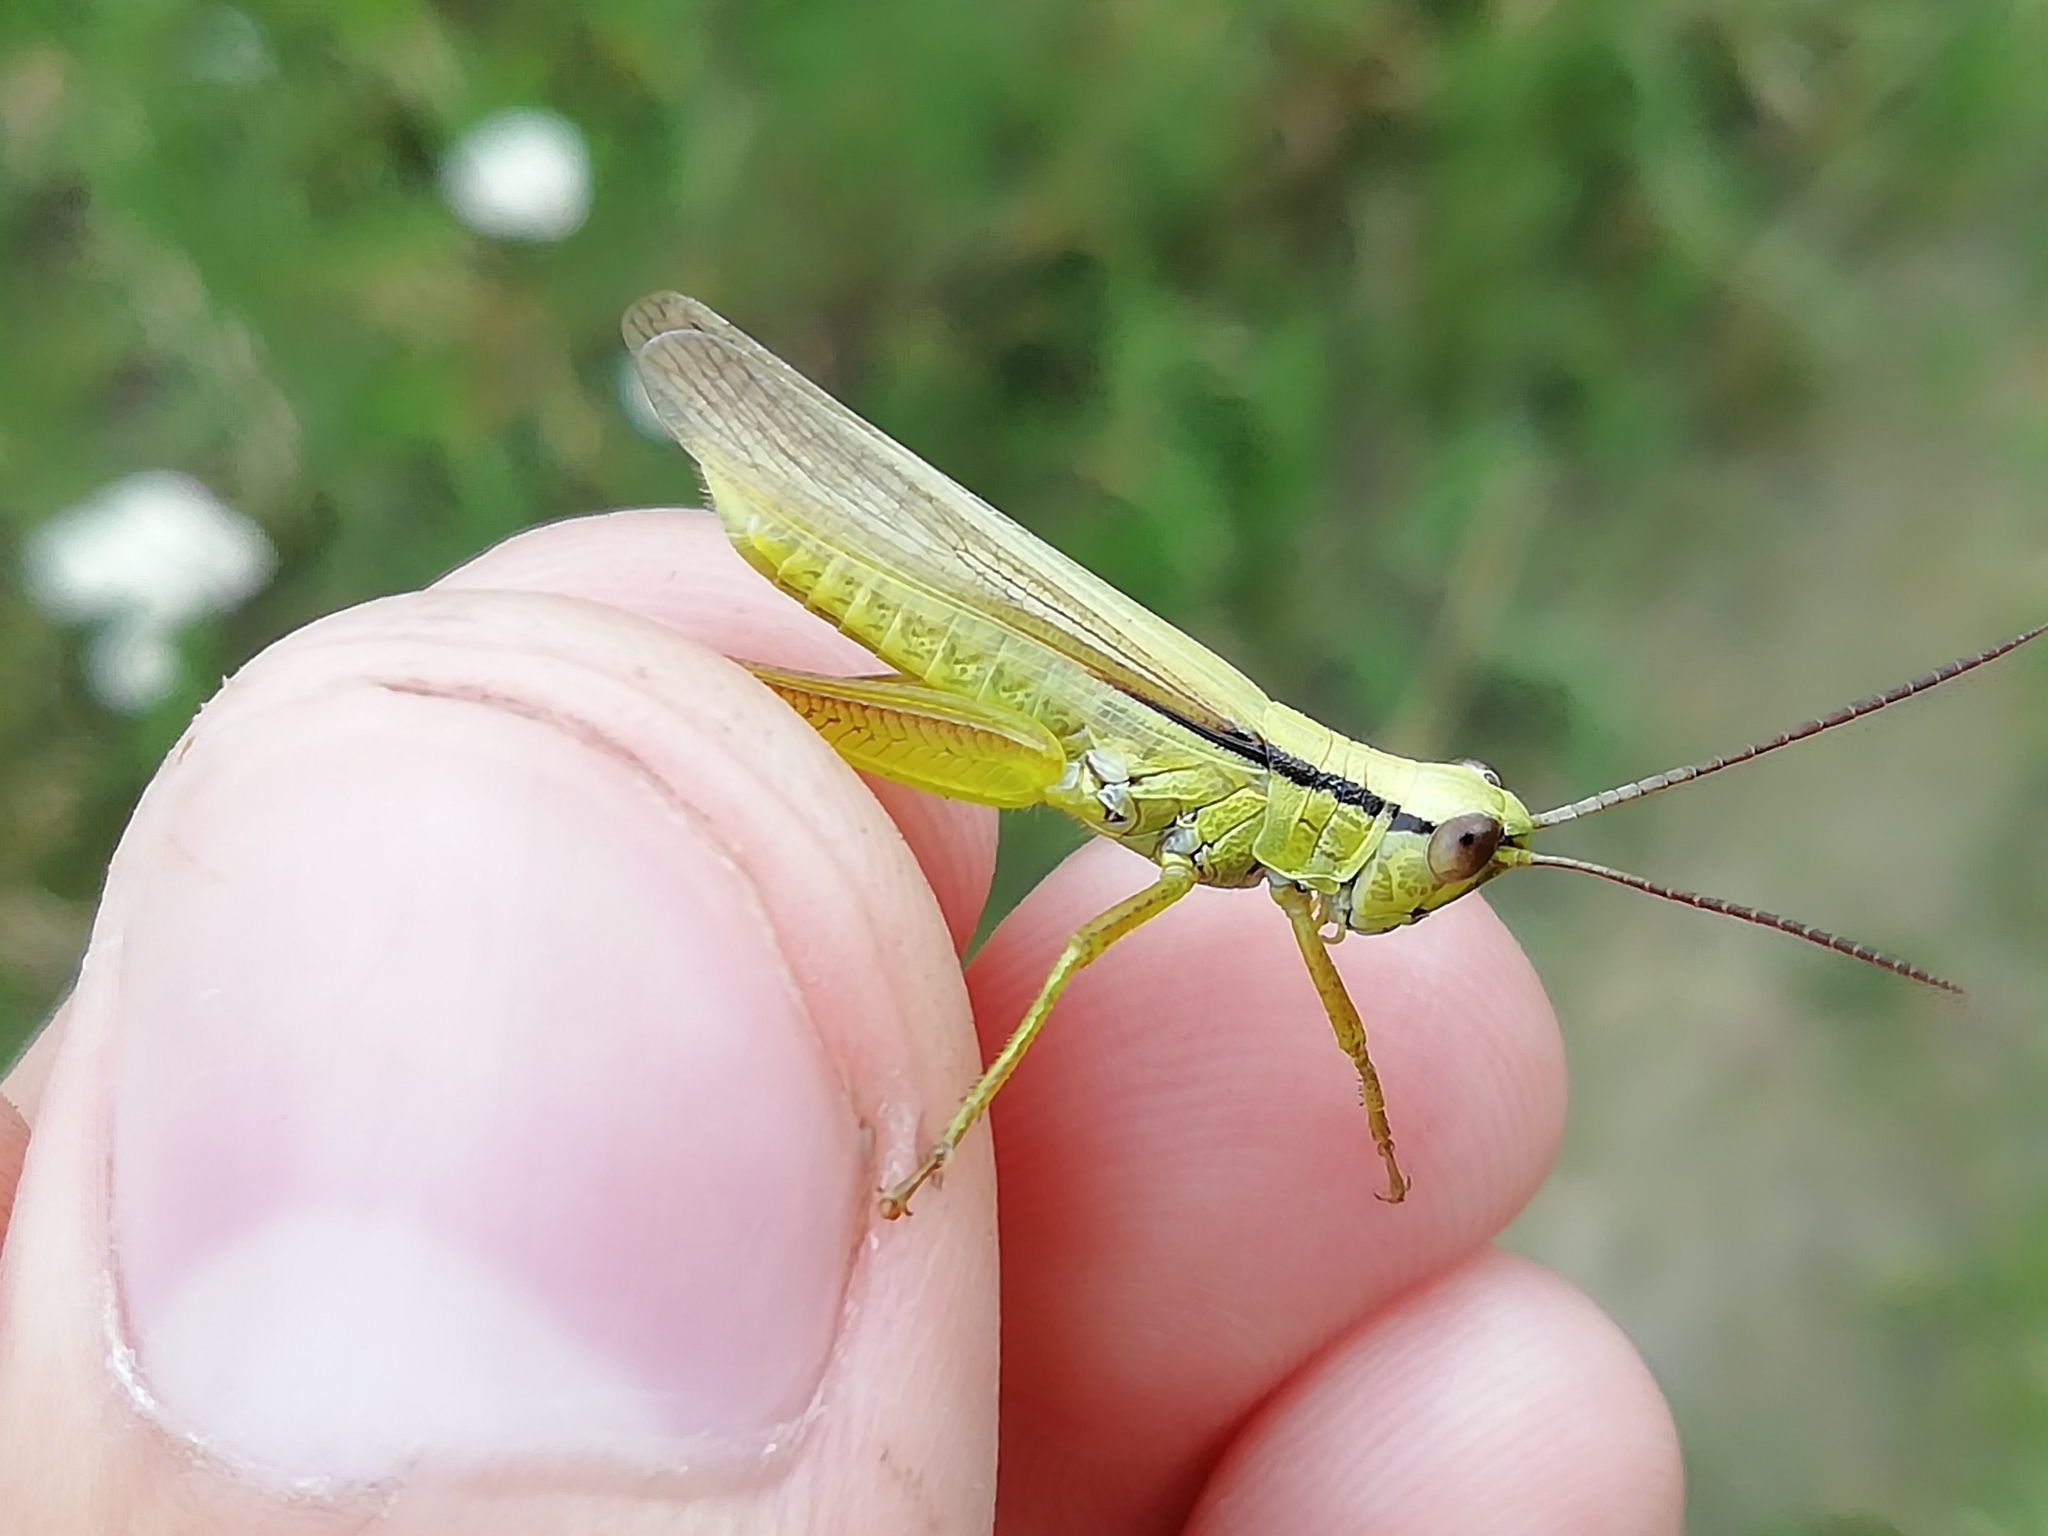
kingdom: Animalia
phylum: Arthropoda
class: Insecta
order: Orthoptera
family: Acrididae
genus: Mecostethus
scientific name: Mecostethus parapleurus
